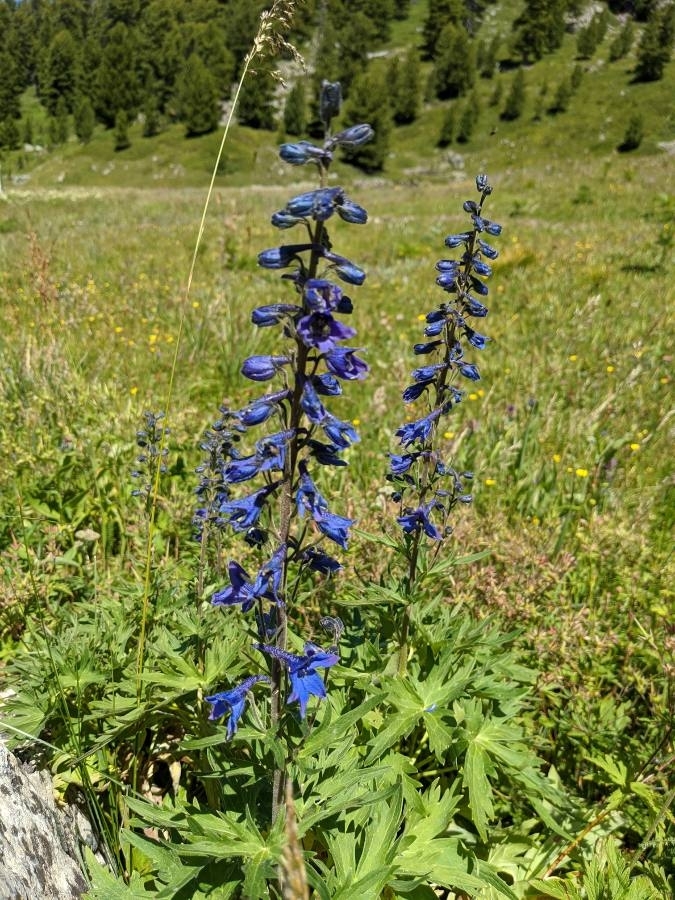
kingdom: Plantae
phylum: Tracheophyta
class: Magnoliopsida
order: Ranunculales
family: Ranunculaceae
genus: Delphinium
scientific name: Delphinium elatum
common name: Candle larkspur
